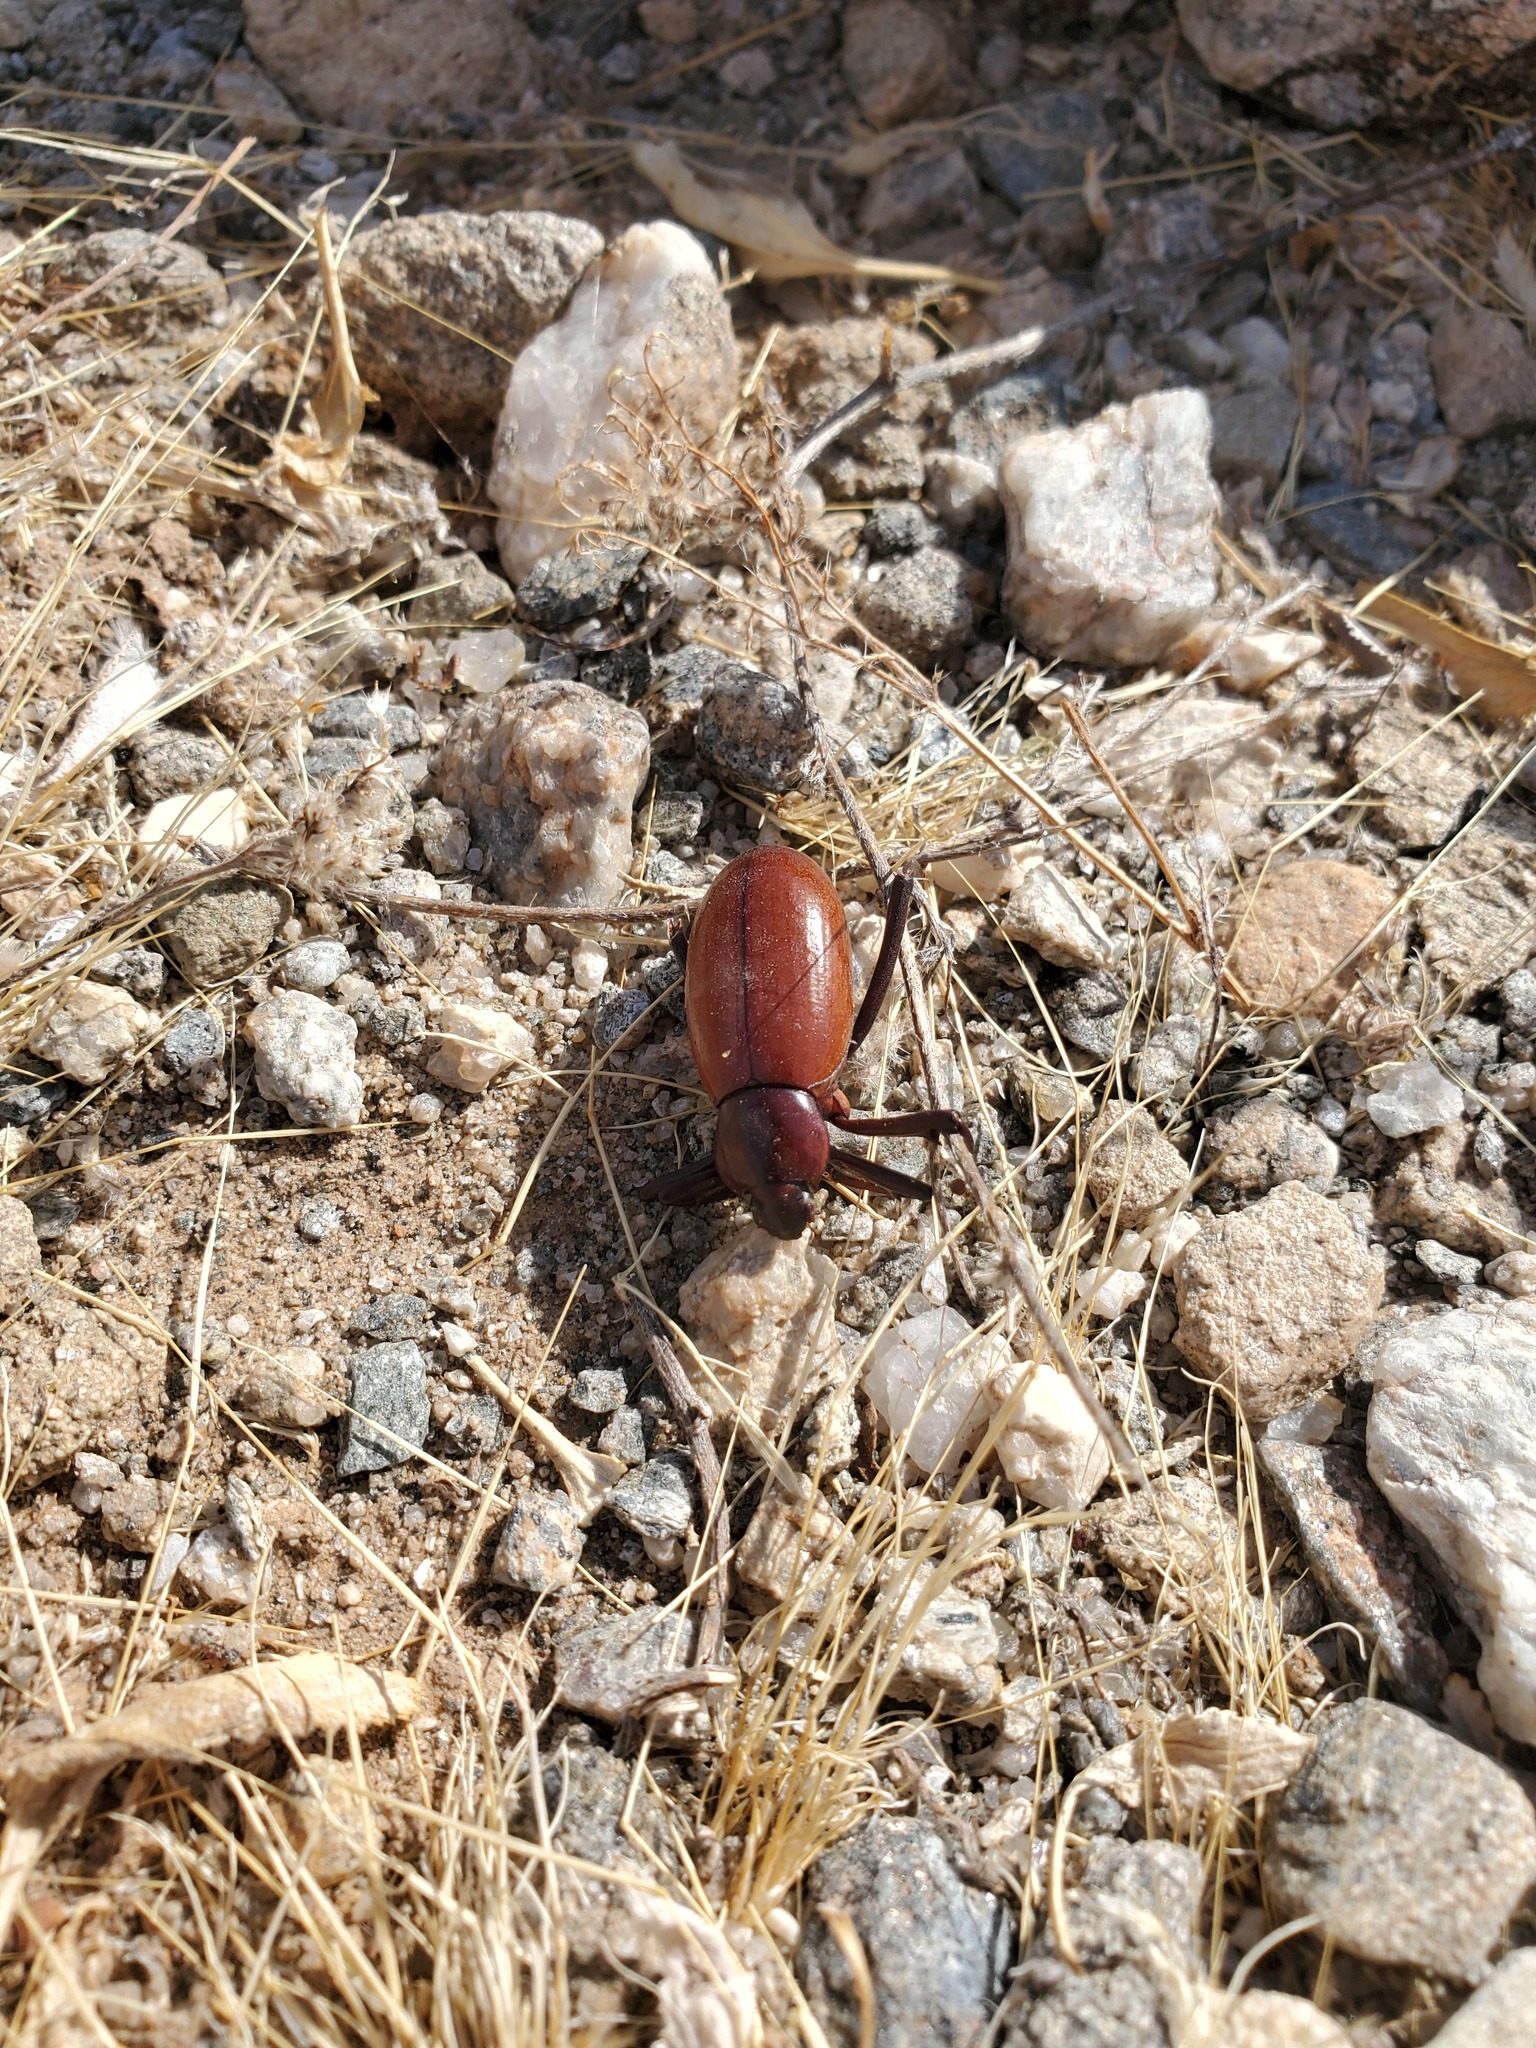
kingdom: Animalia
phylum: Arthropoda
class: Insecta
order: Coleoptera
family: Tenebrionidae
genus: Eleodes
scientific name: Eleodes armata
